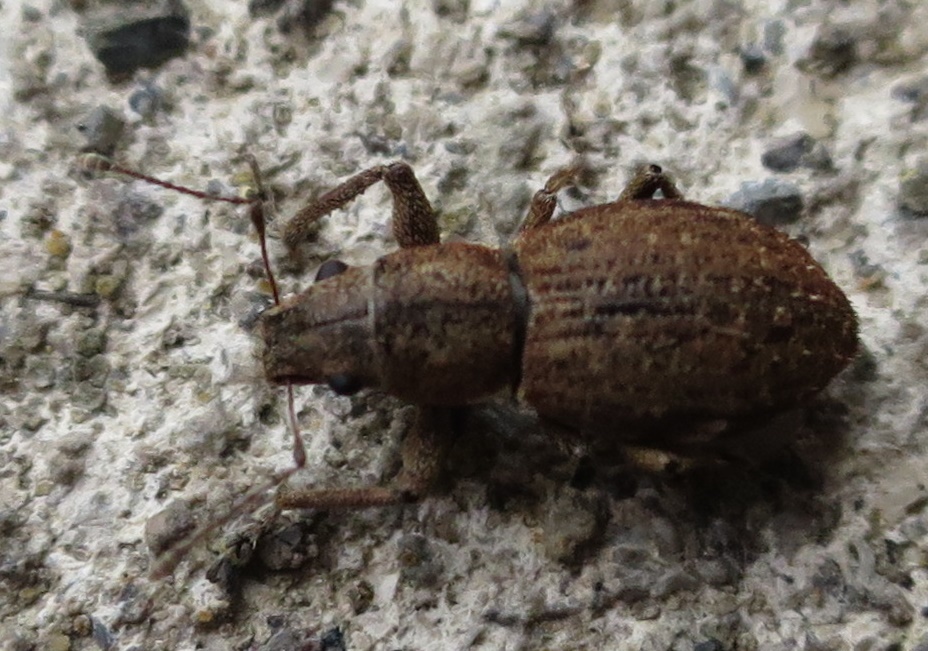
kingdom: Animalia
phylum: Arthropoda
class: Insecta
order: Coleoptera
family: Curculionidae
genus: Naupactus
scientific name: Naupactus cervinus
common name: Fuller rose beetle
